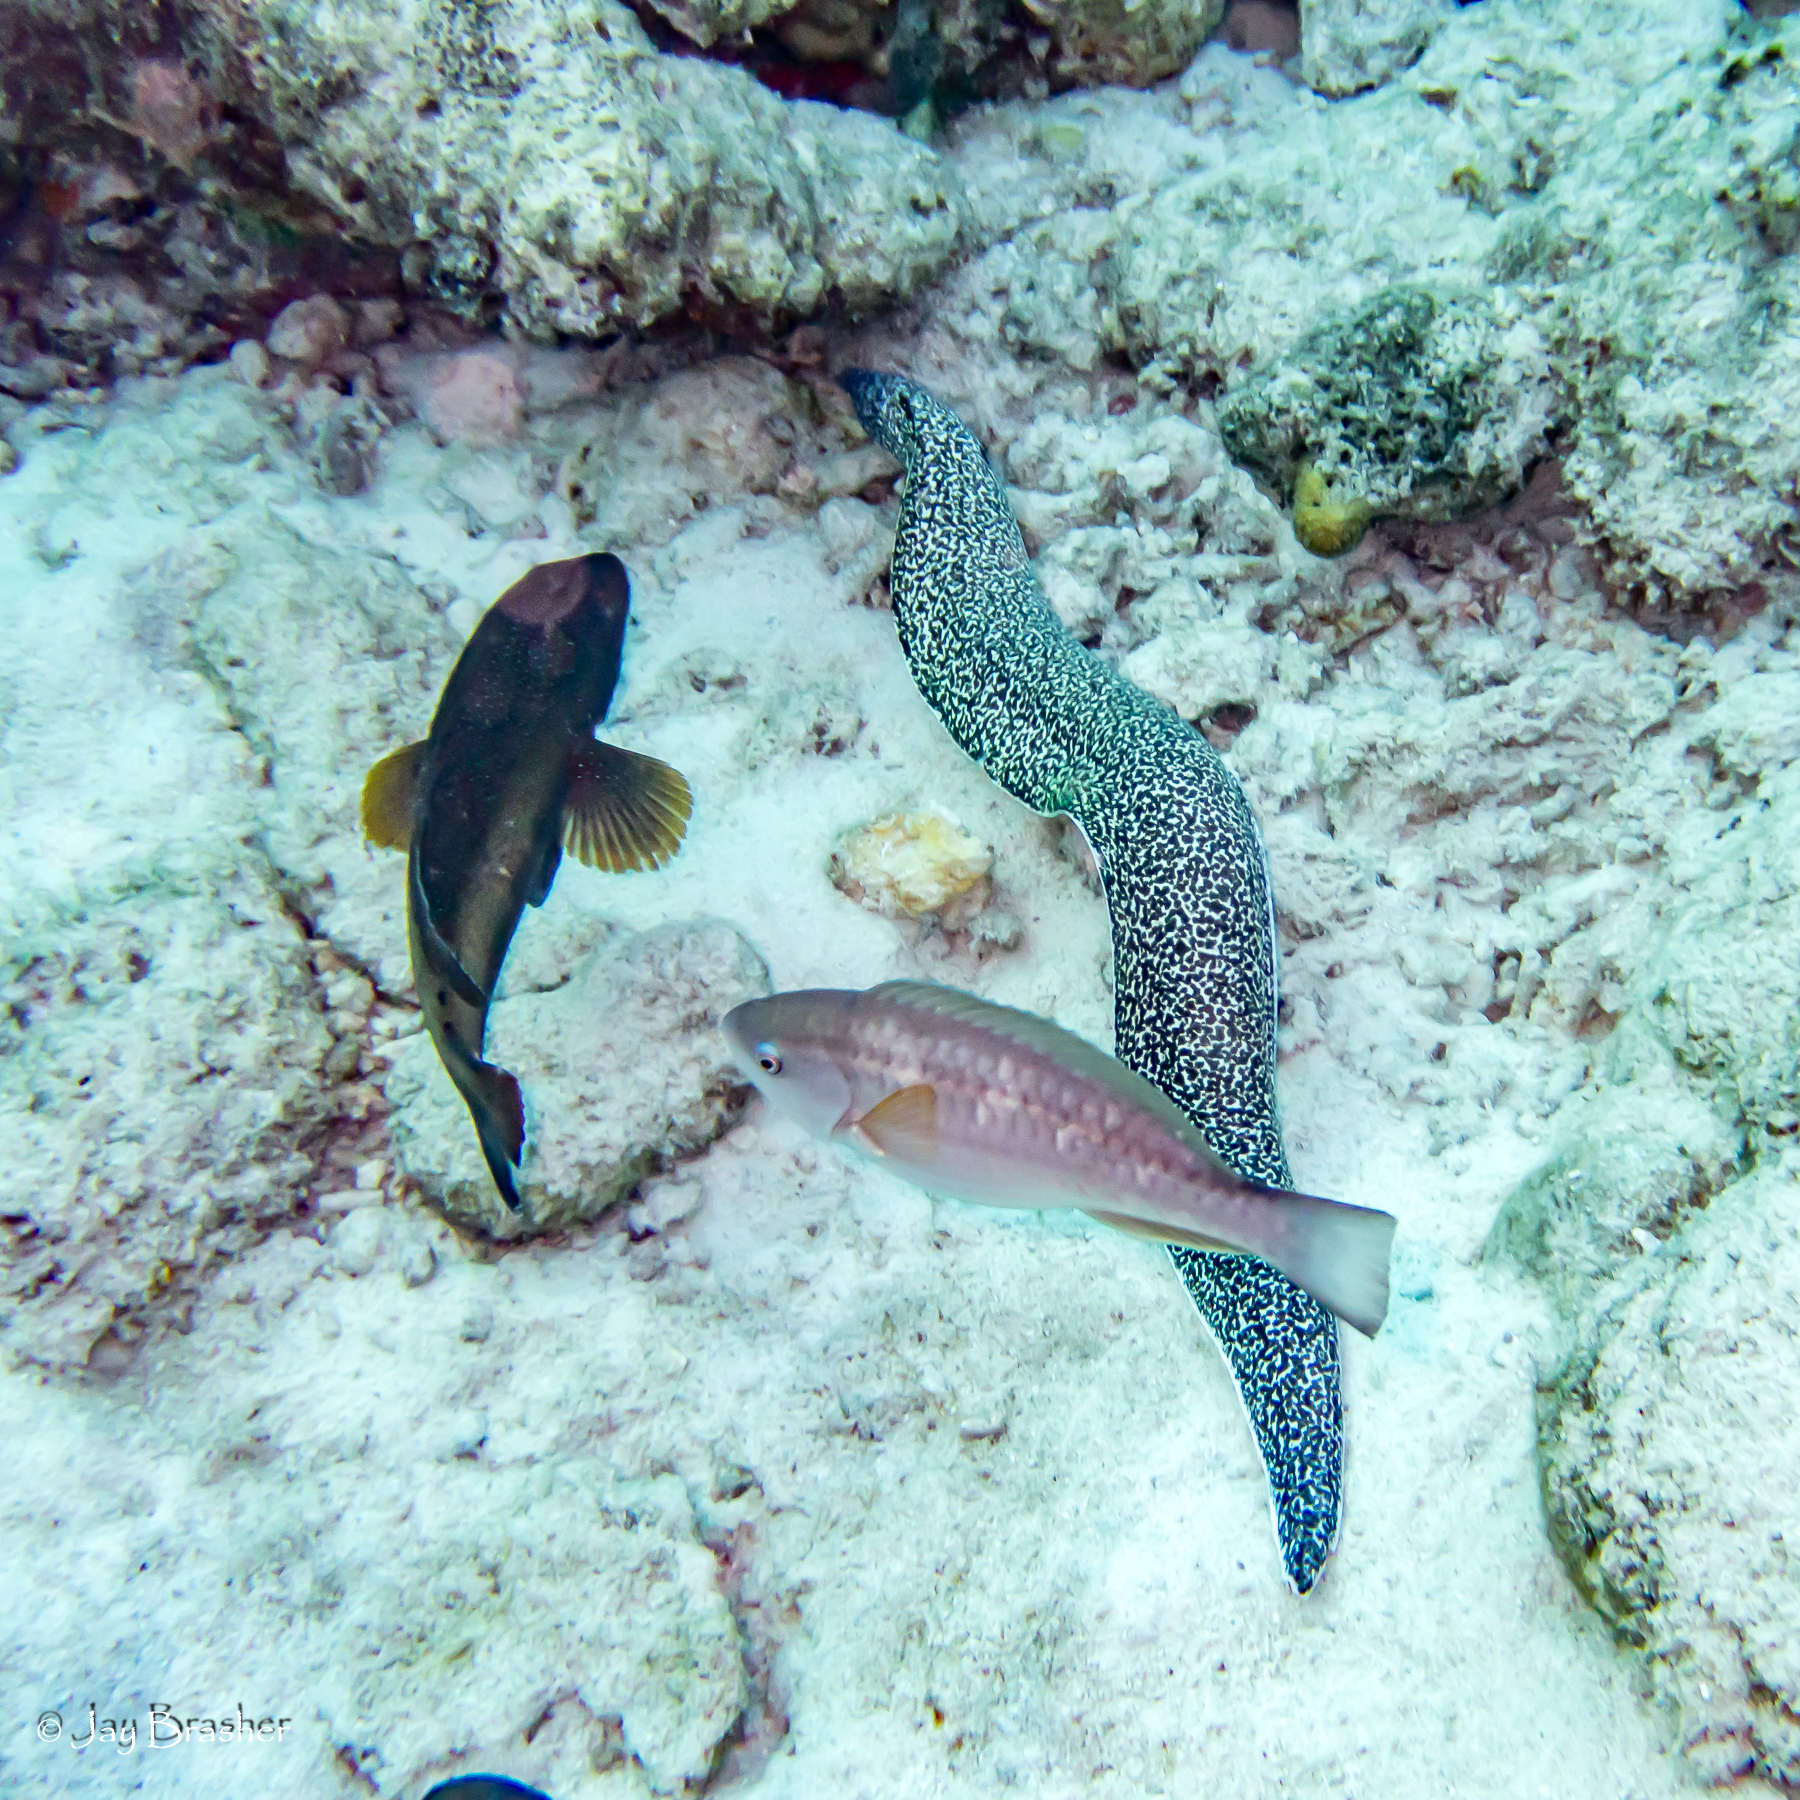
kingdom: Animalia
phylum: Chordata
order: Anguilliformes
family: Muraenidae
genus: Gymnothorax
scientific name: Gymnothorax moringa
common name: Spotted moray
